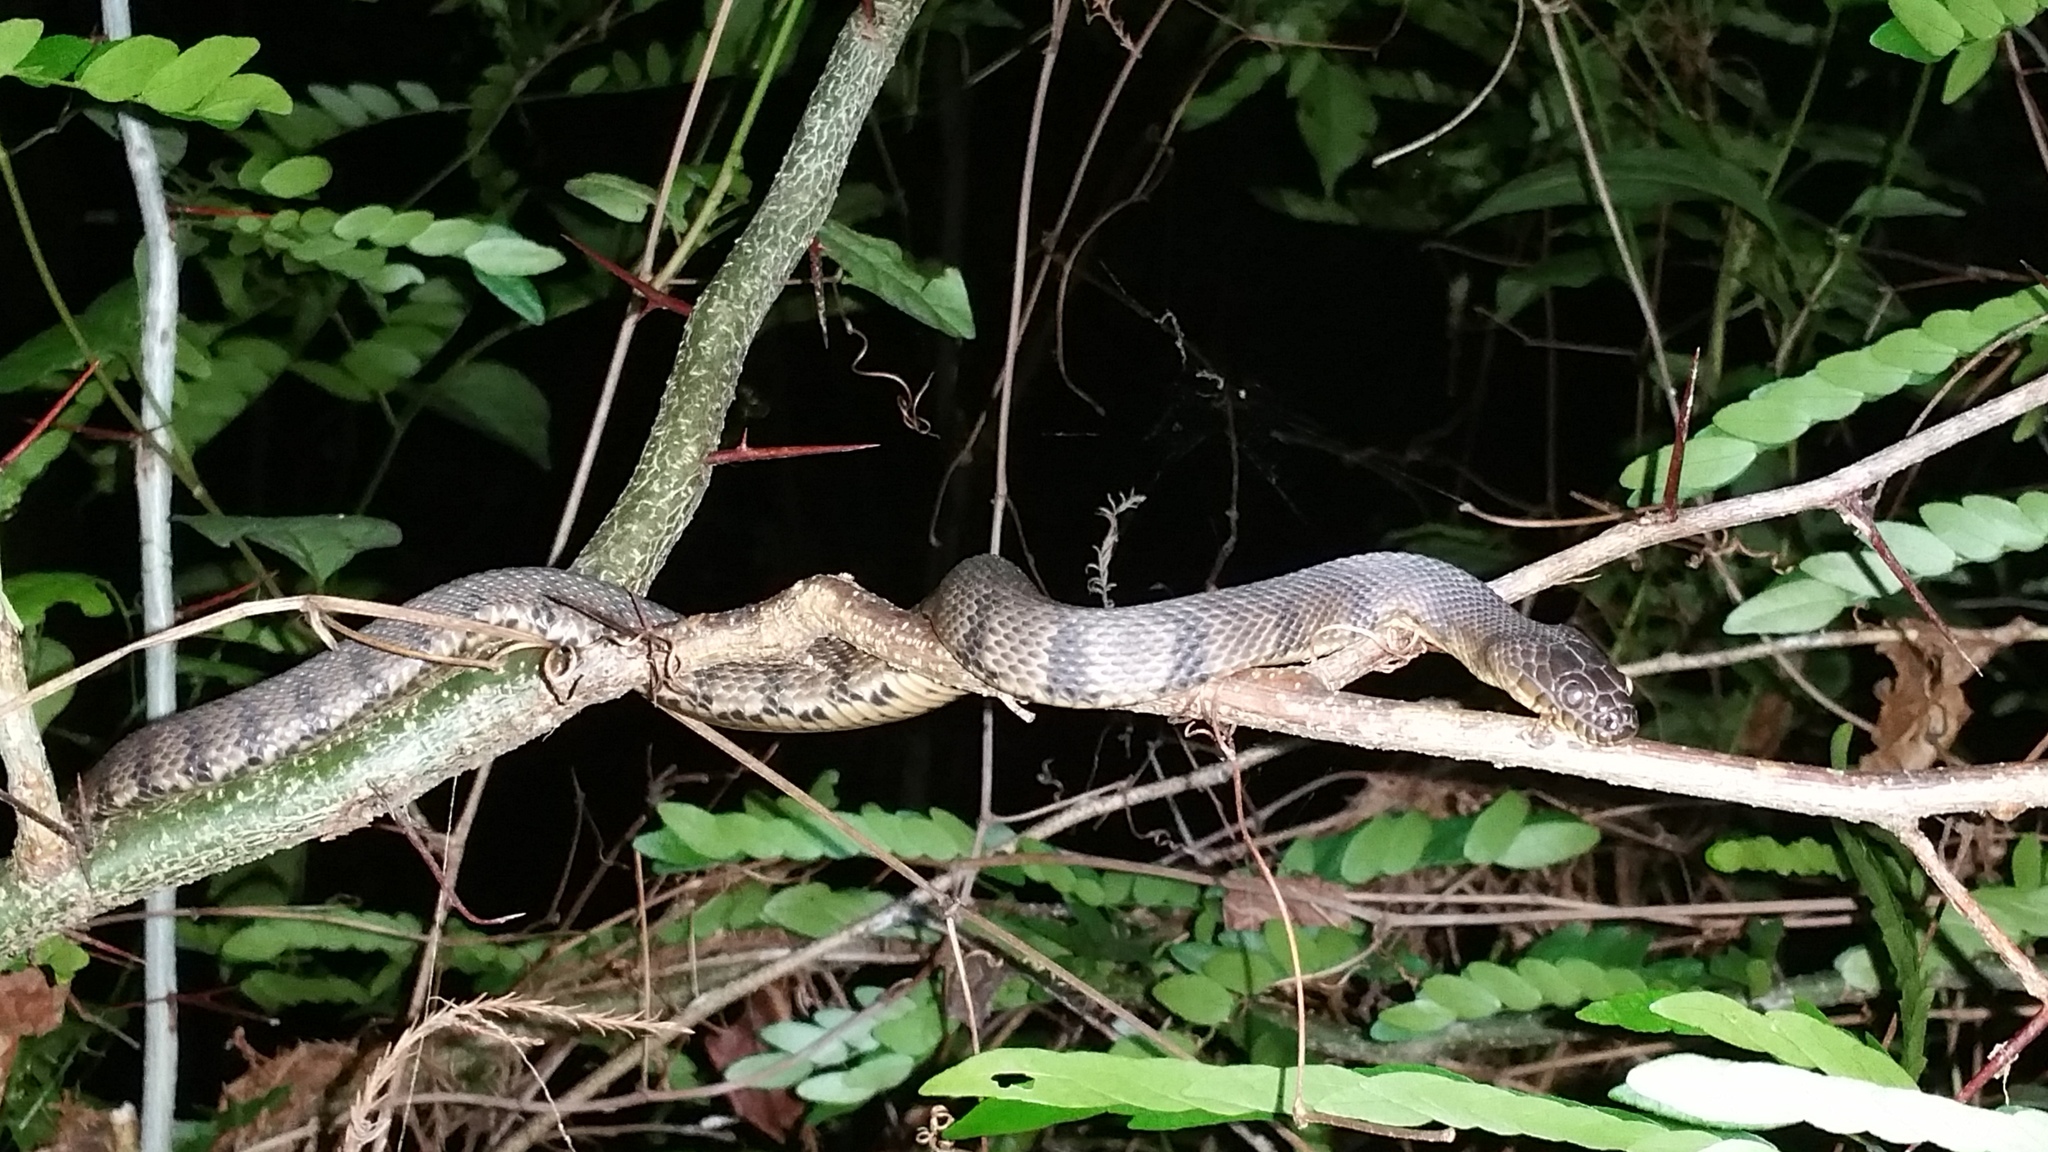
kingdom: Animalia
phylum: Chordata
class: Squamata
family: Colubridae
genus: Nerodia
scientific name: Nerodia rhombifer
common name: Diamondback water snake
